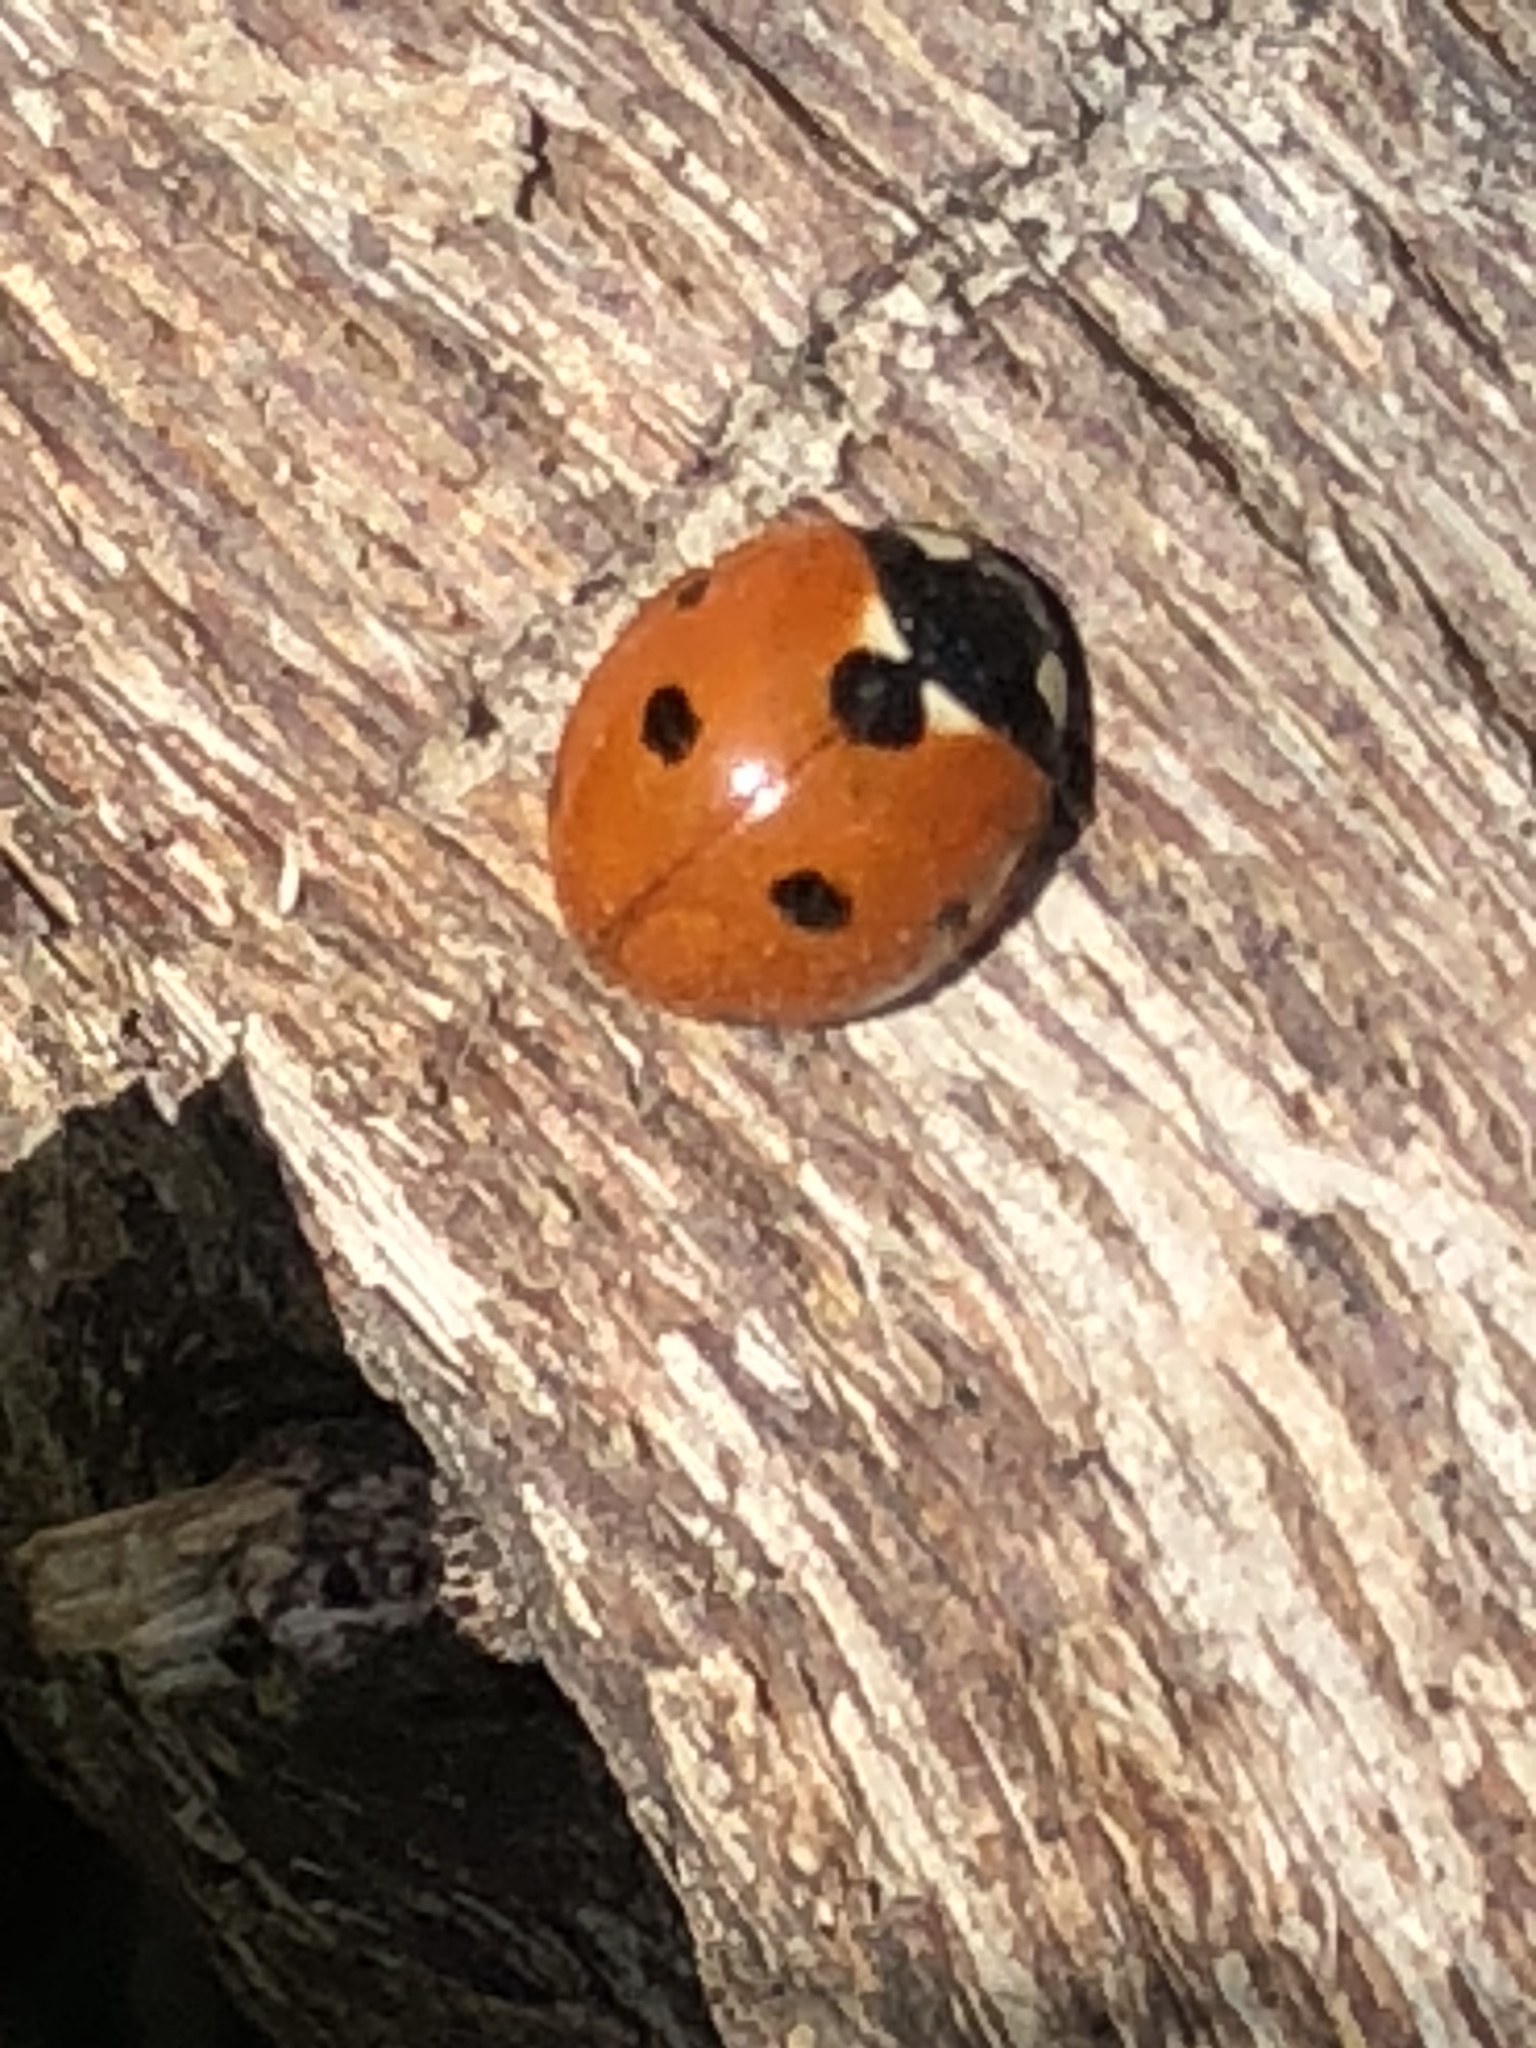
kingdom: Animalia
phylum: Arthropoda
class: Insecta
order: Coleoptera
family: Coccinellidae
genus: Coccinella
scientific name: Coccinella septempunctata
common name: Sevenspotted lady beetle
